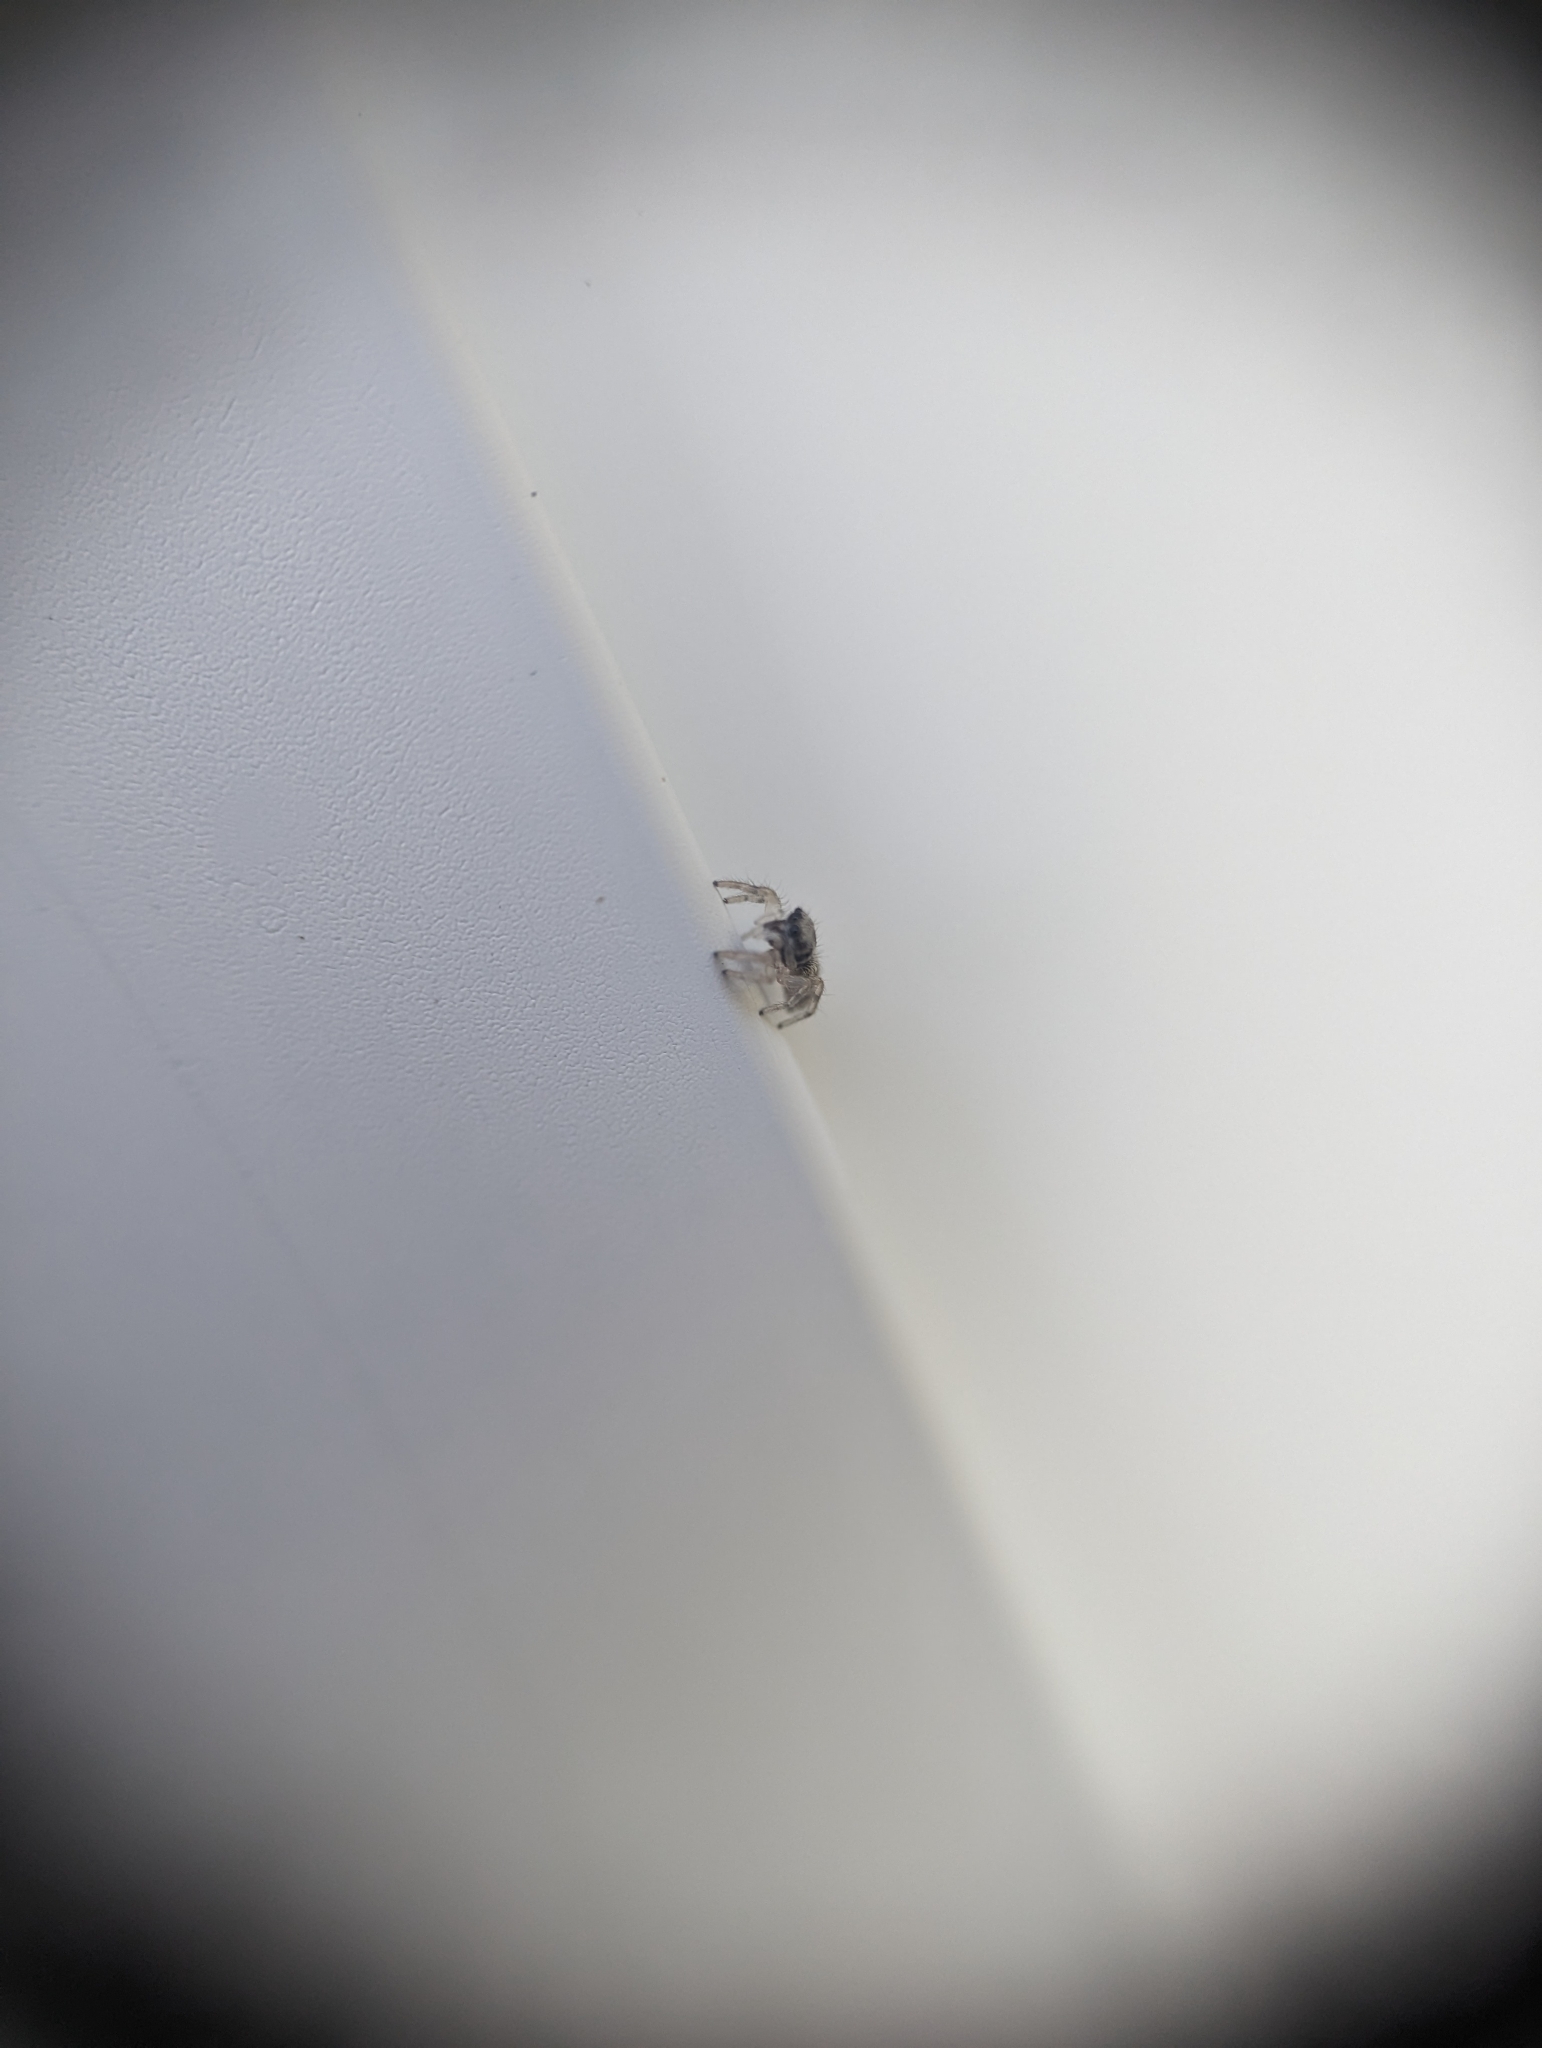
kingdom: Animalia
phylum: Arthropoda
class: Arachnida
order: Araneae
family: Salticidae
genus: Salticus
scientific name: Salticus scenicus
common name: Zebra jumper
